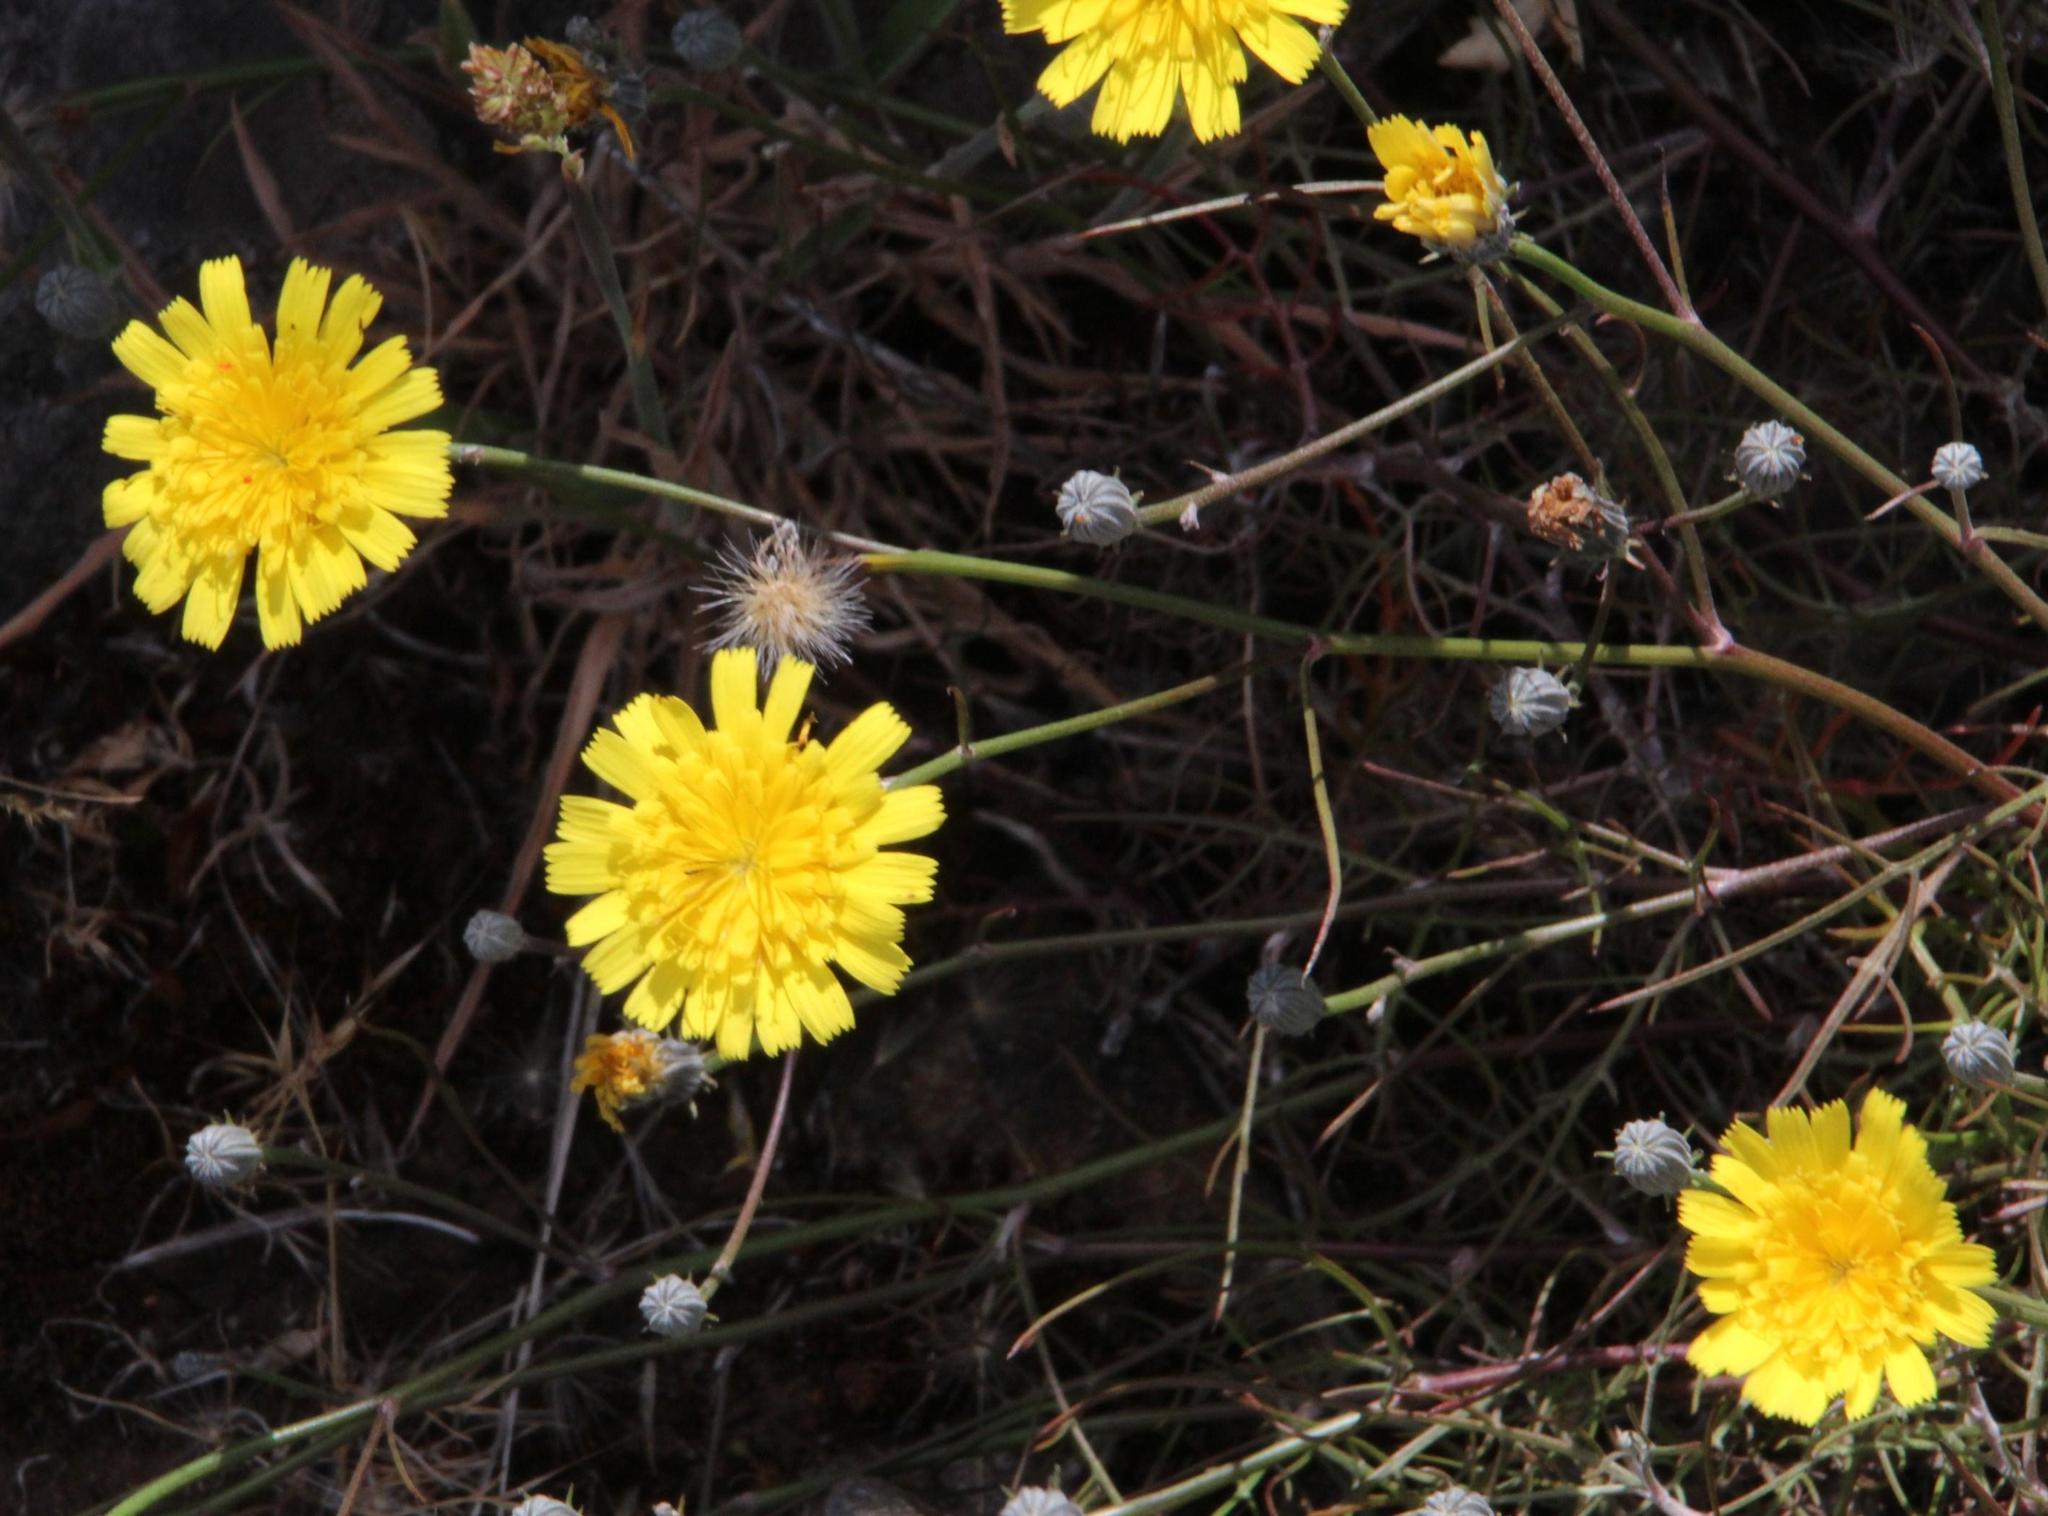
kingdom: Plantae
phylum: Tracheophyta
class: Magnoliopsida
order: Asterales
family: Asteraceae
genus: Andryala
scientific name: Andryala glandulosa
